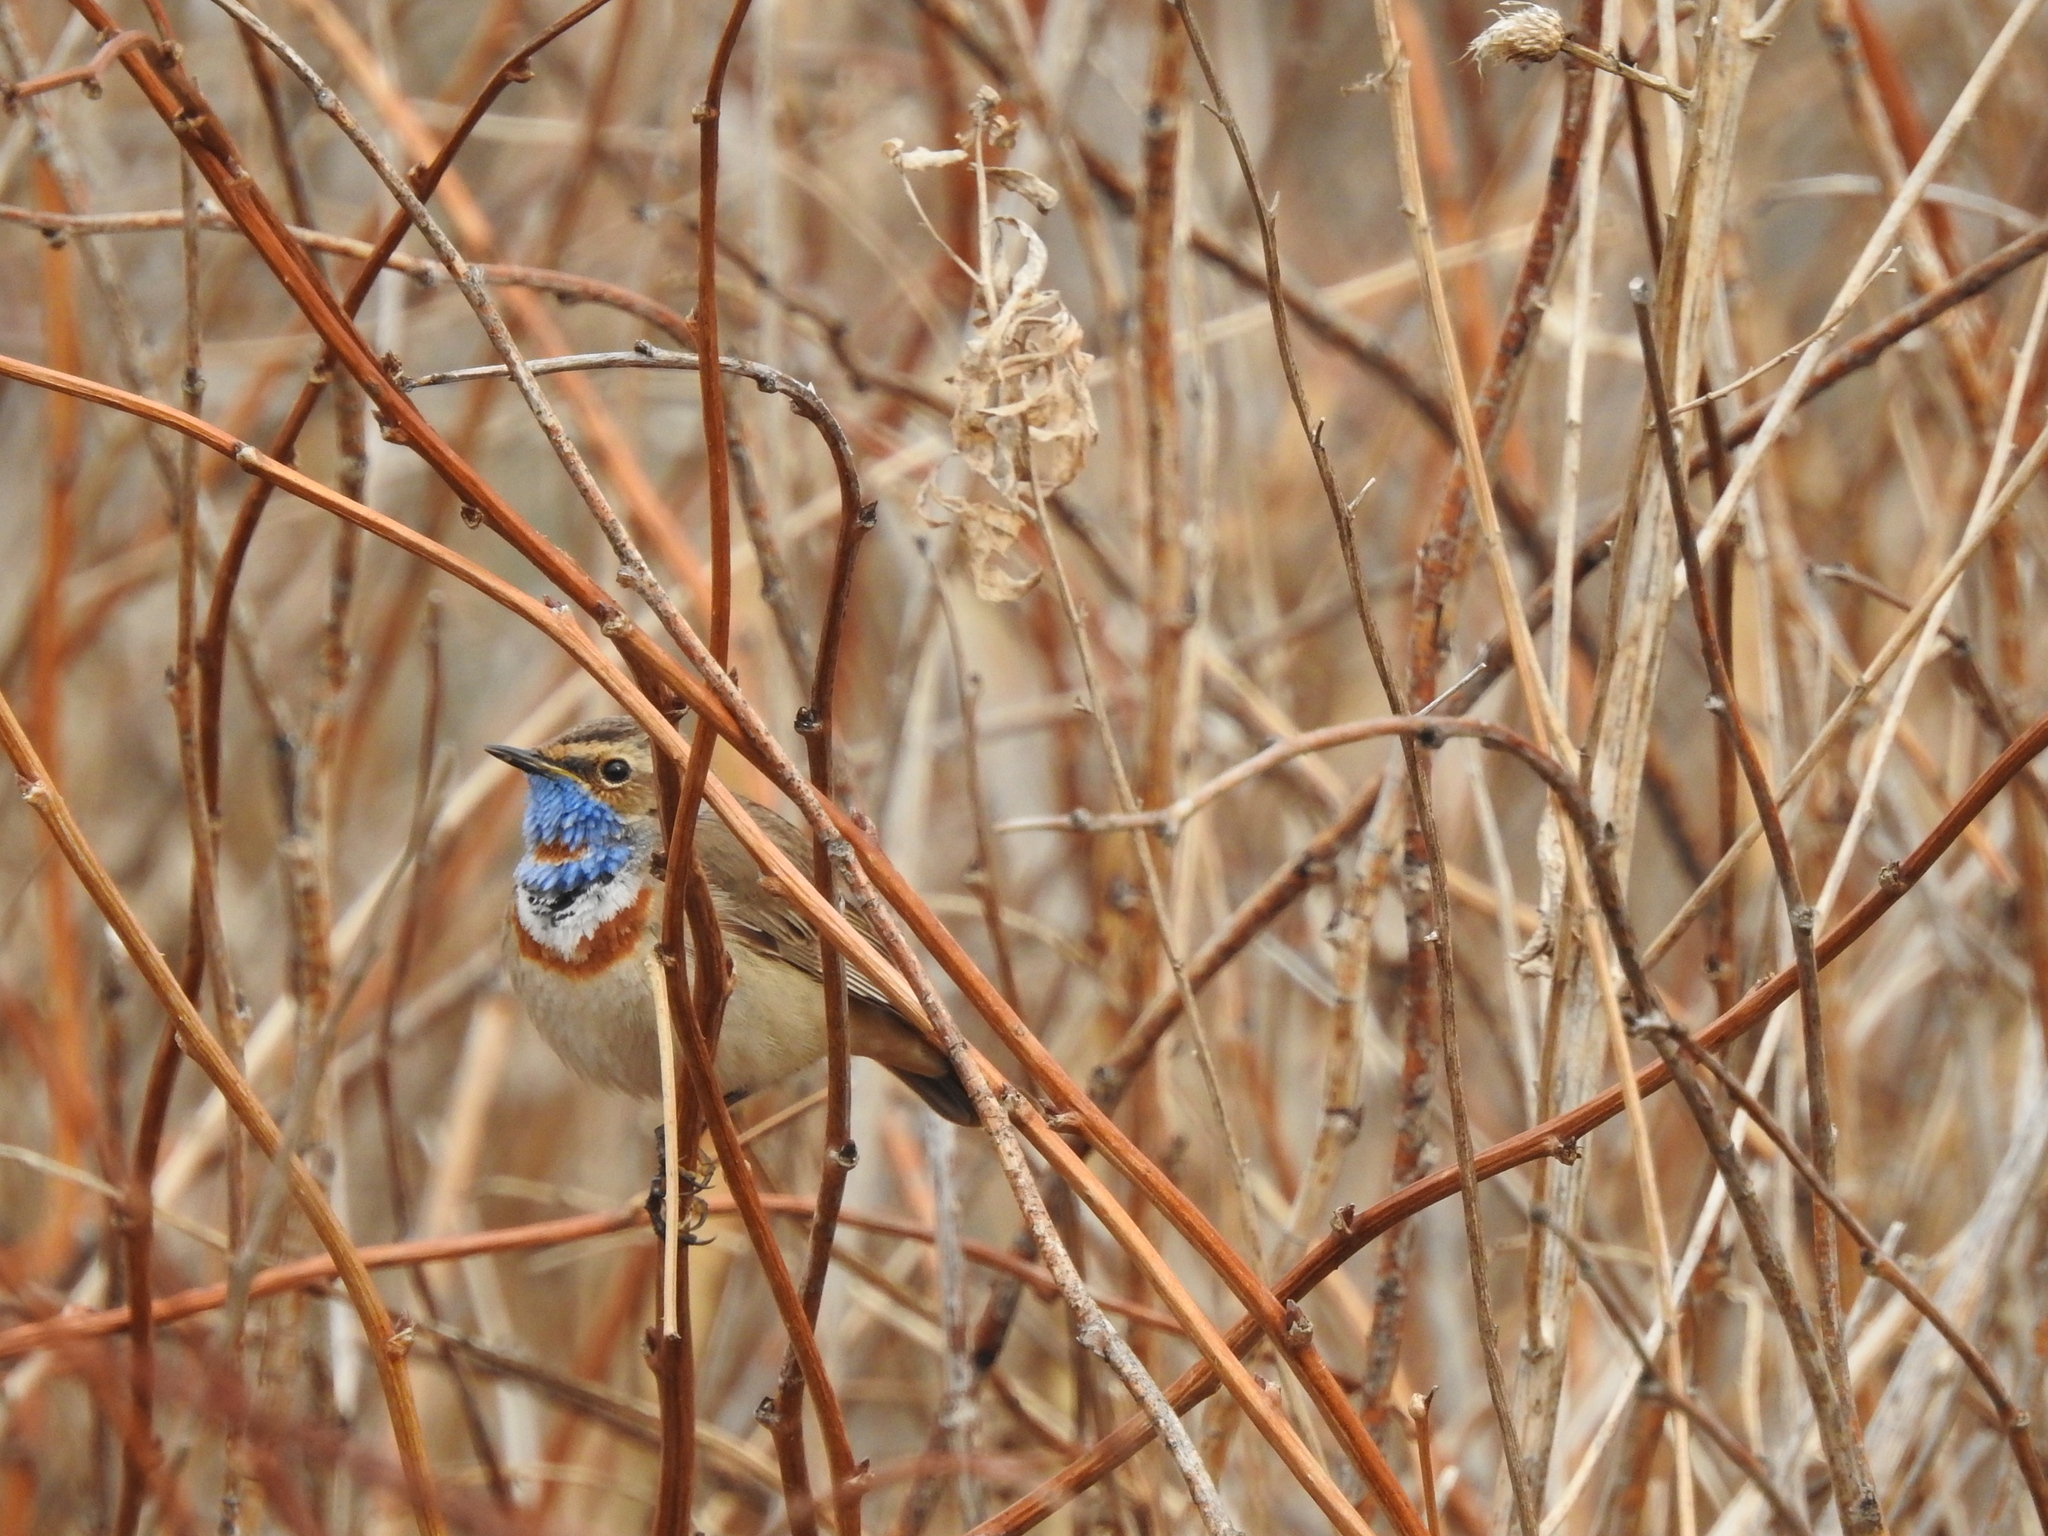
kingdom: Animalia
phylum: Chordata
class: Aves
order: Passeriformes
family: Muscicapidae
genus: Luscinia
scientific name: Luscinia svecica
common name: Bluethroat
